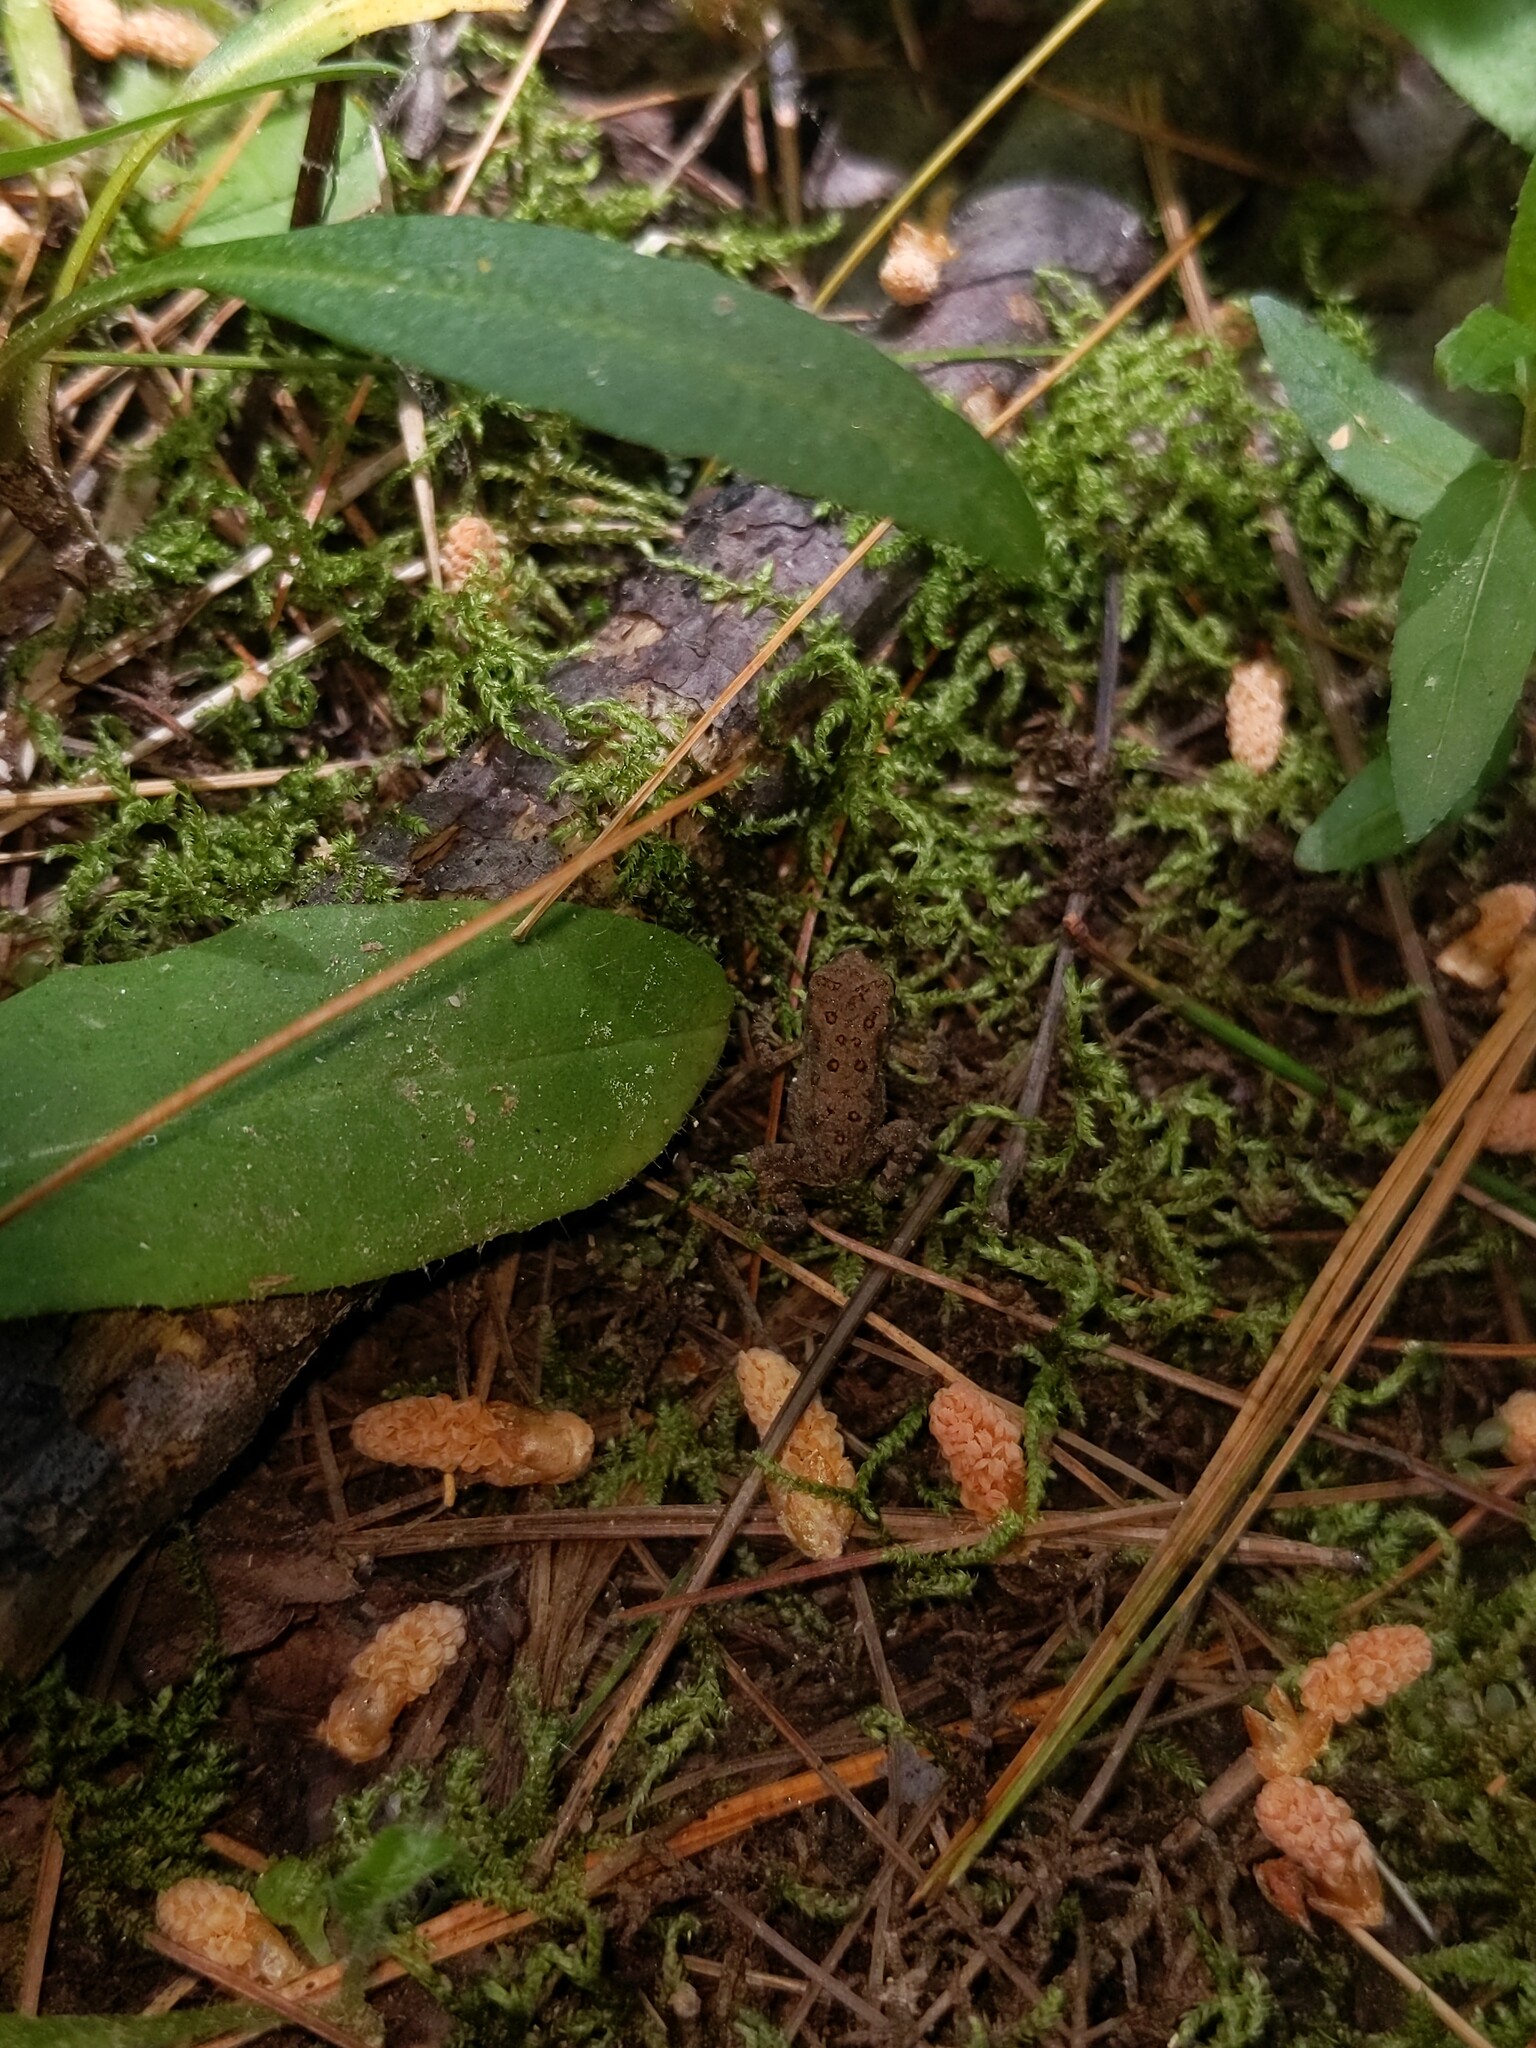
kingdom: Animalia
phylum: Chordata
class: Amphibia
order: Anura
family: Bufonidae
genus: Anaxyrus
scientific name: Anaxyrus americanus
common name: American toad
